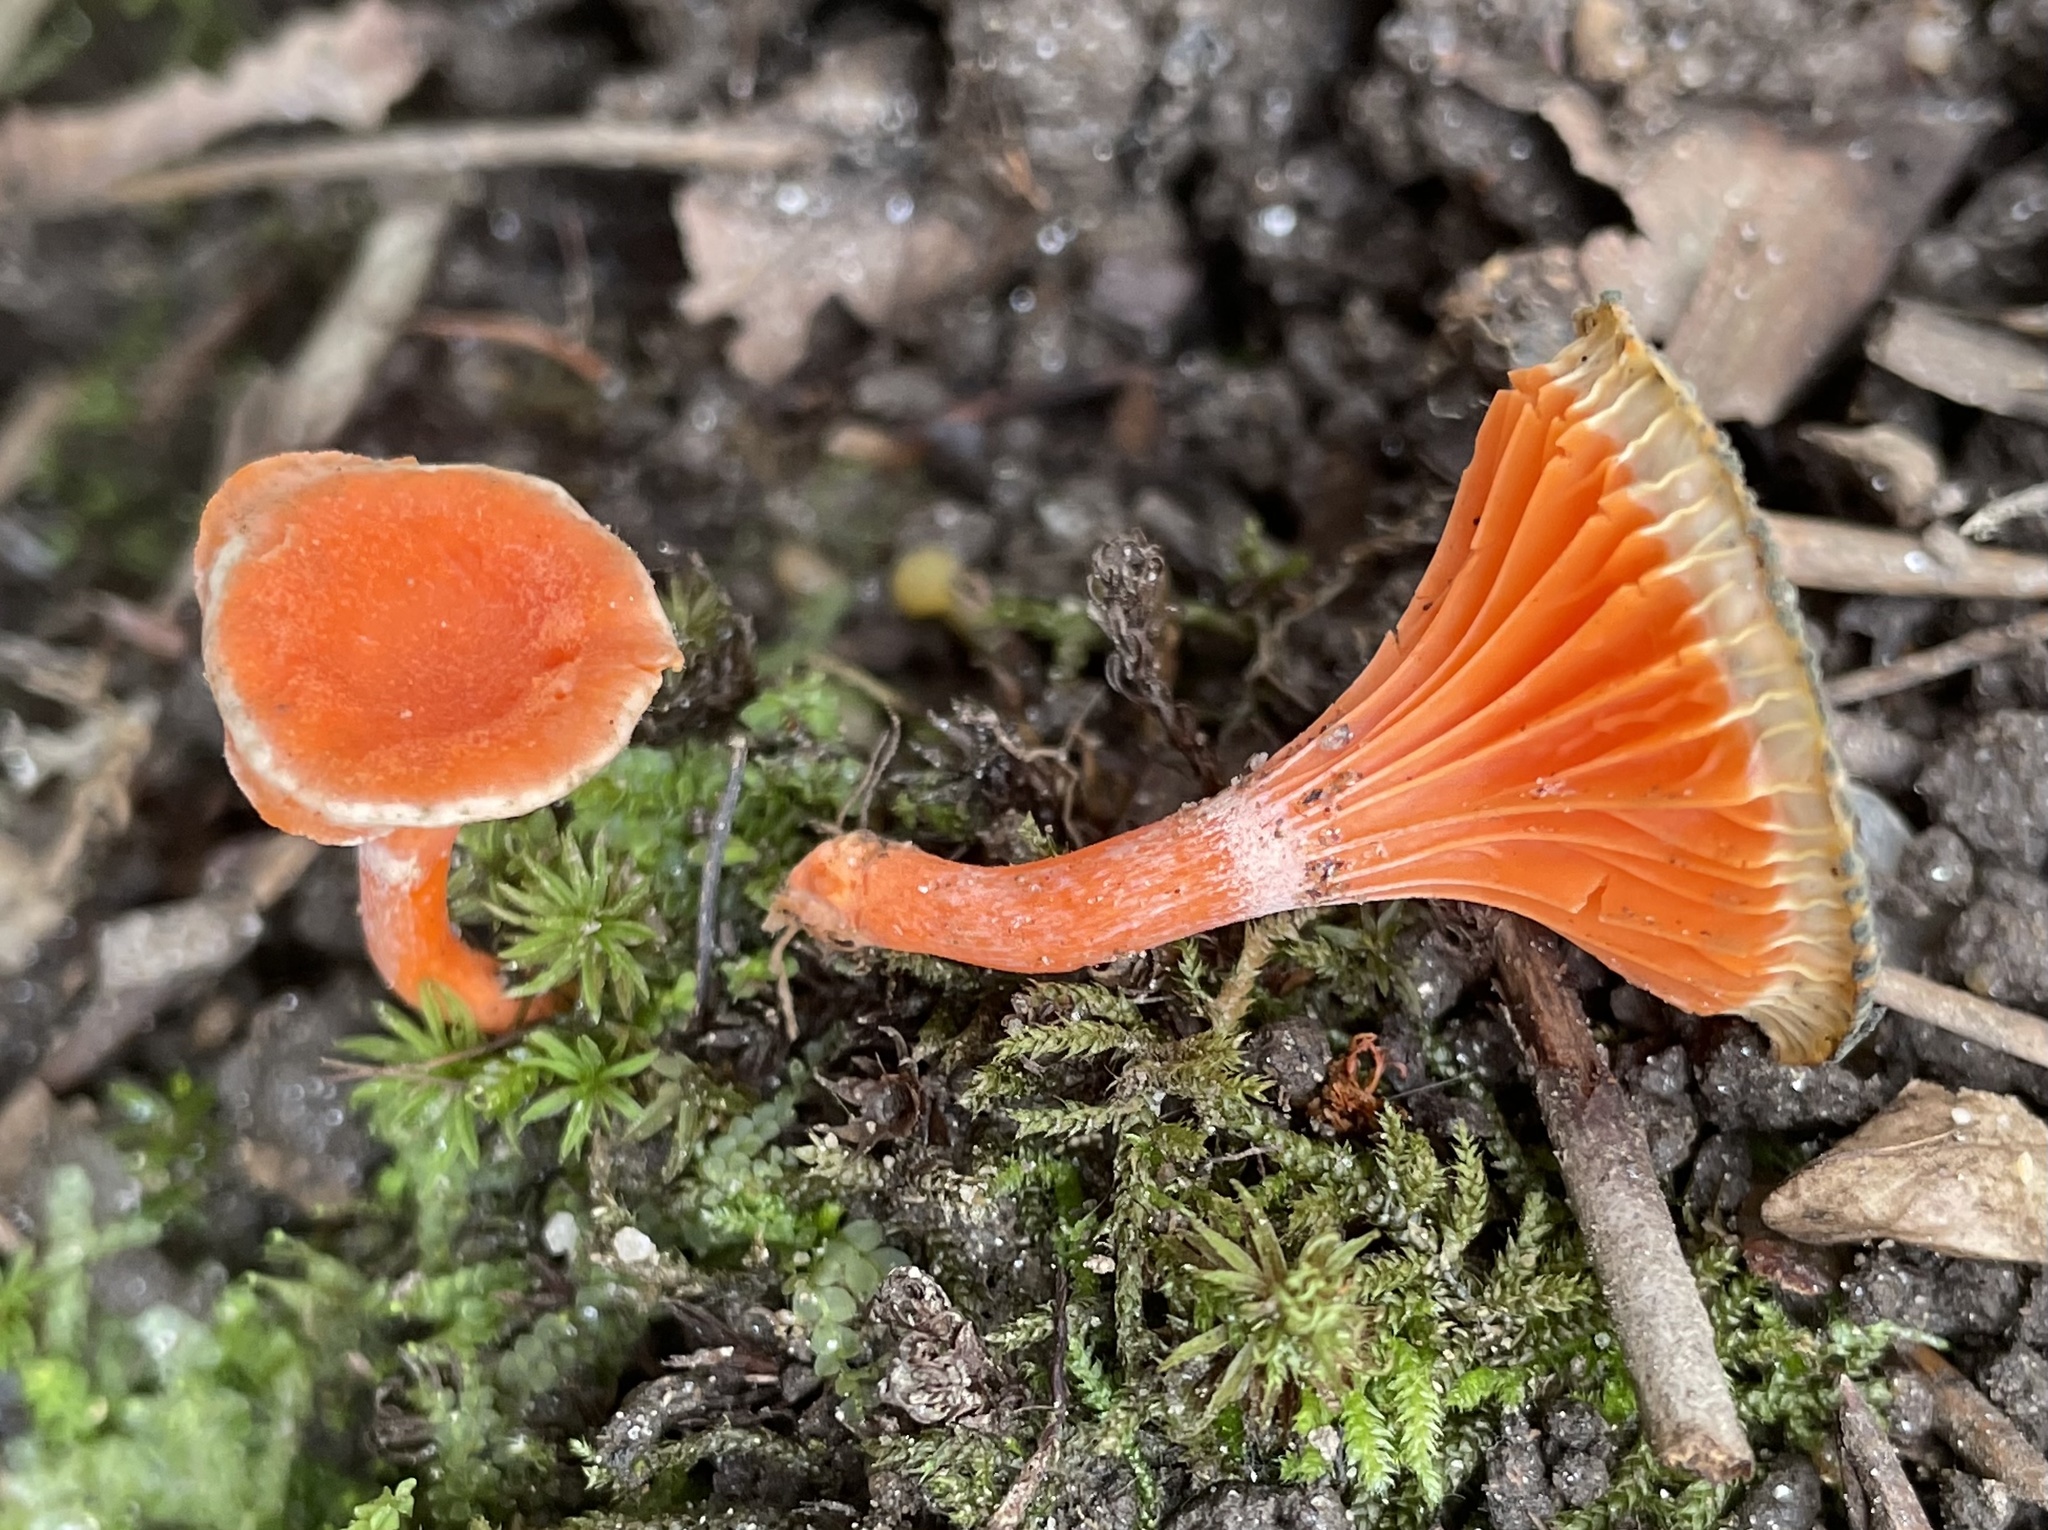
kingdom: Fungi
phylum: Basidiomycota
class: Agaricomycetes
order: Cantharellales
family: Hydnaceae
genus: Cantharellus
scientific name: Cantharellus cinnabarinus
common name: Cinnabar chanterelle
